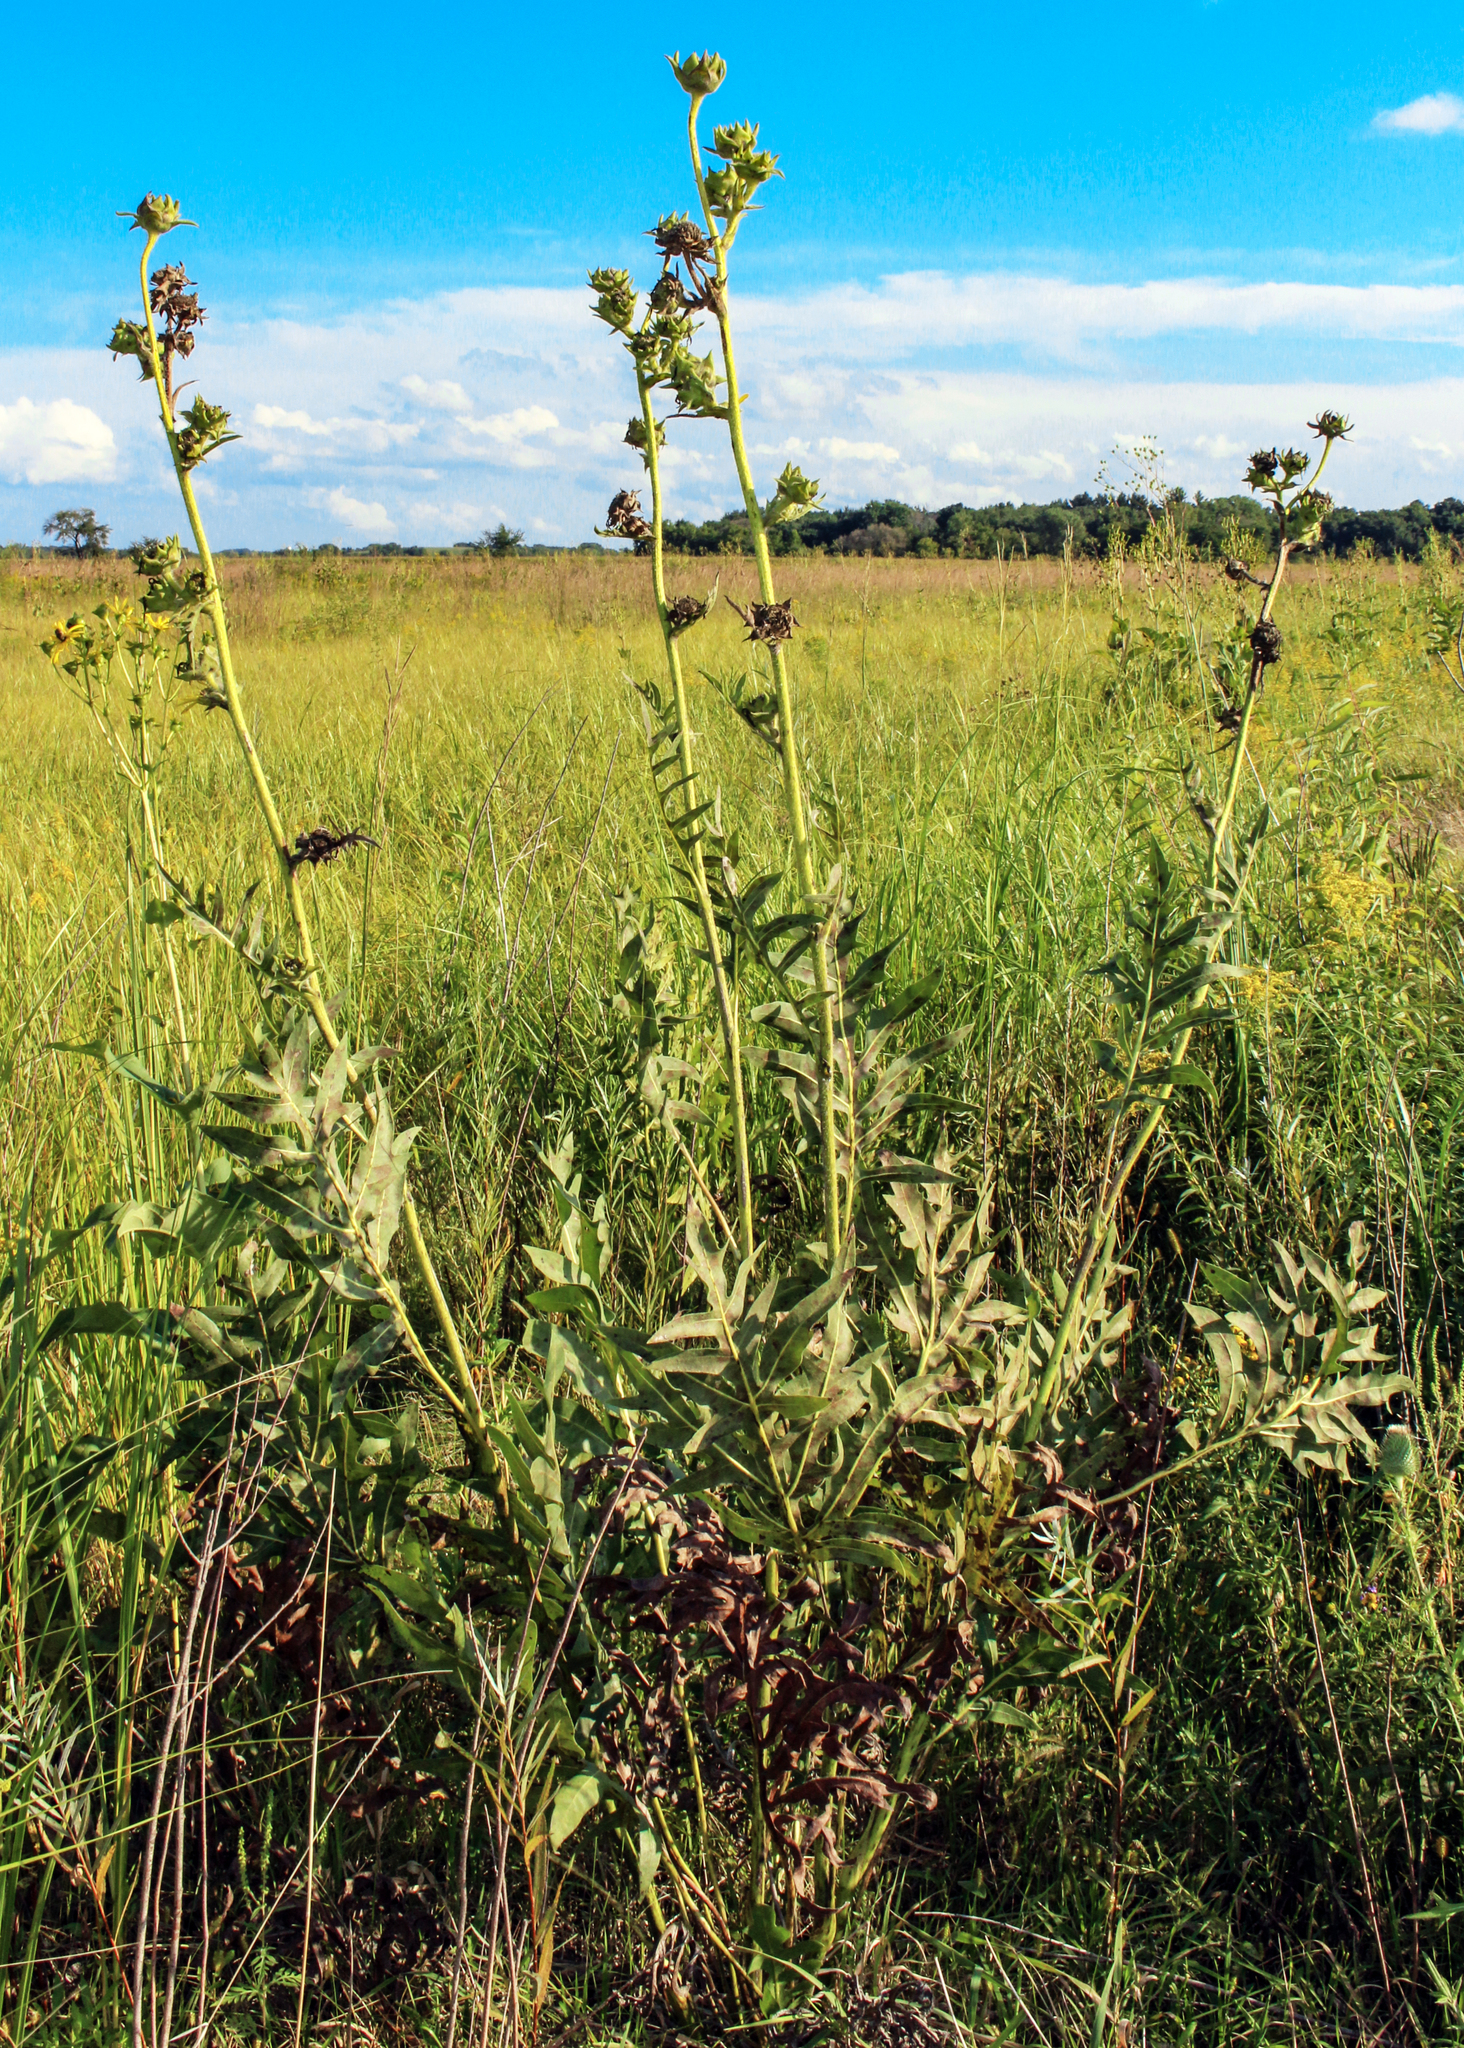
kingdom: Plantae
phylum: Tracheophyta
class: Magnoliopsida
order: Asterales
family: Asteraceae
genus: Silphium
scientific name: Silphium laciniatum
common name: Polarplant
